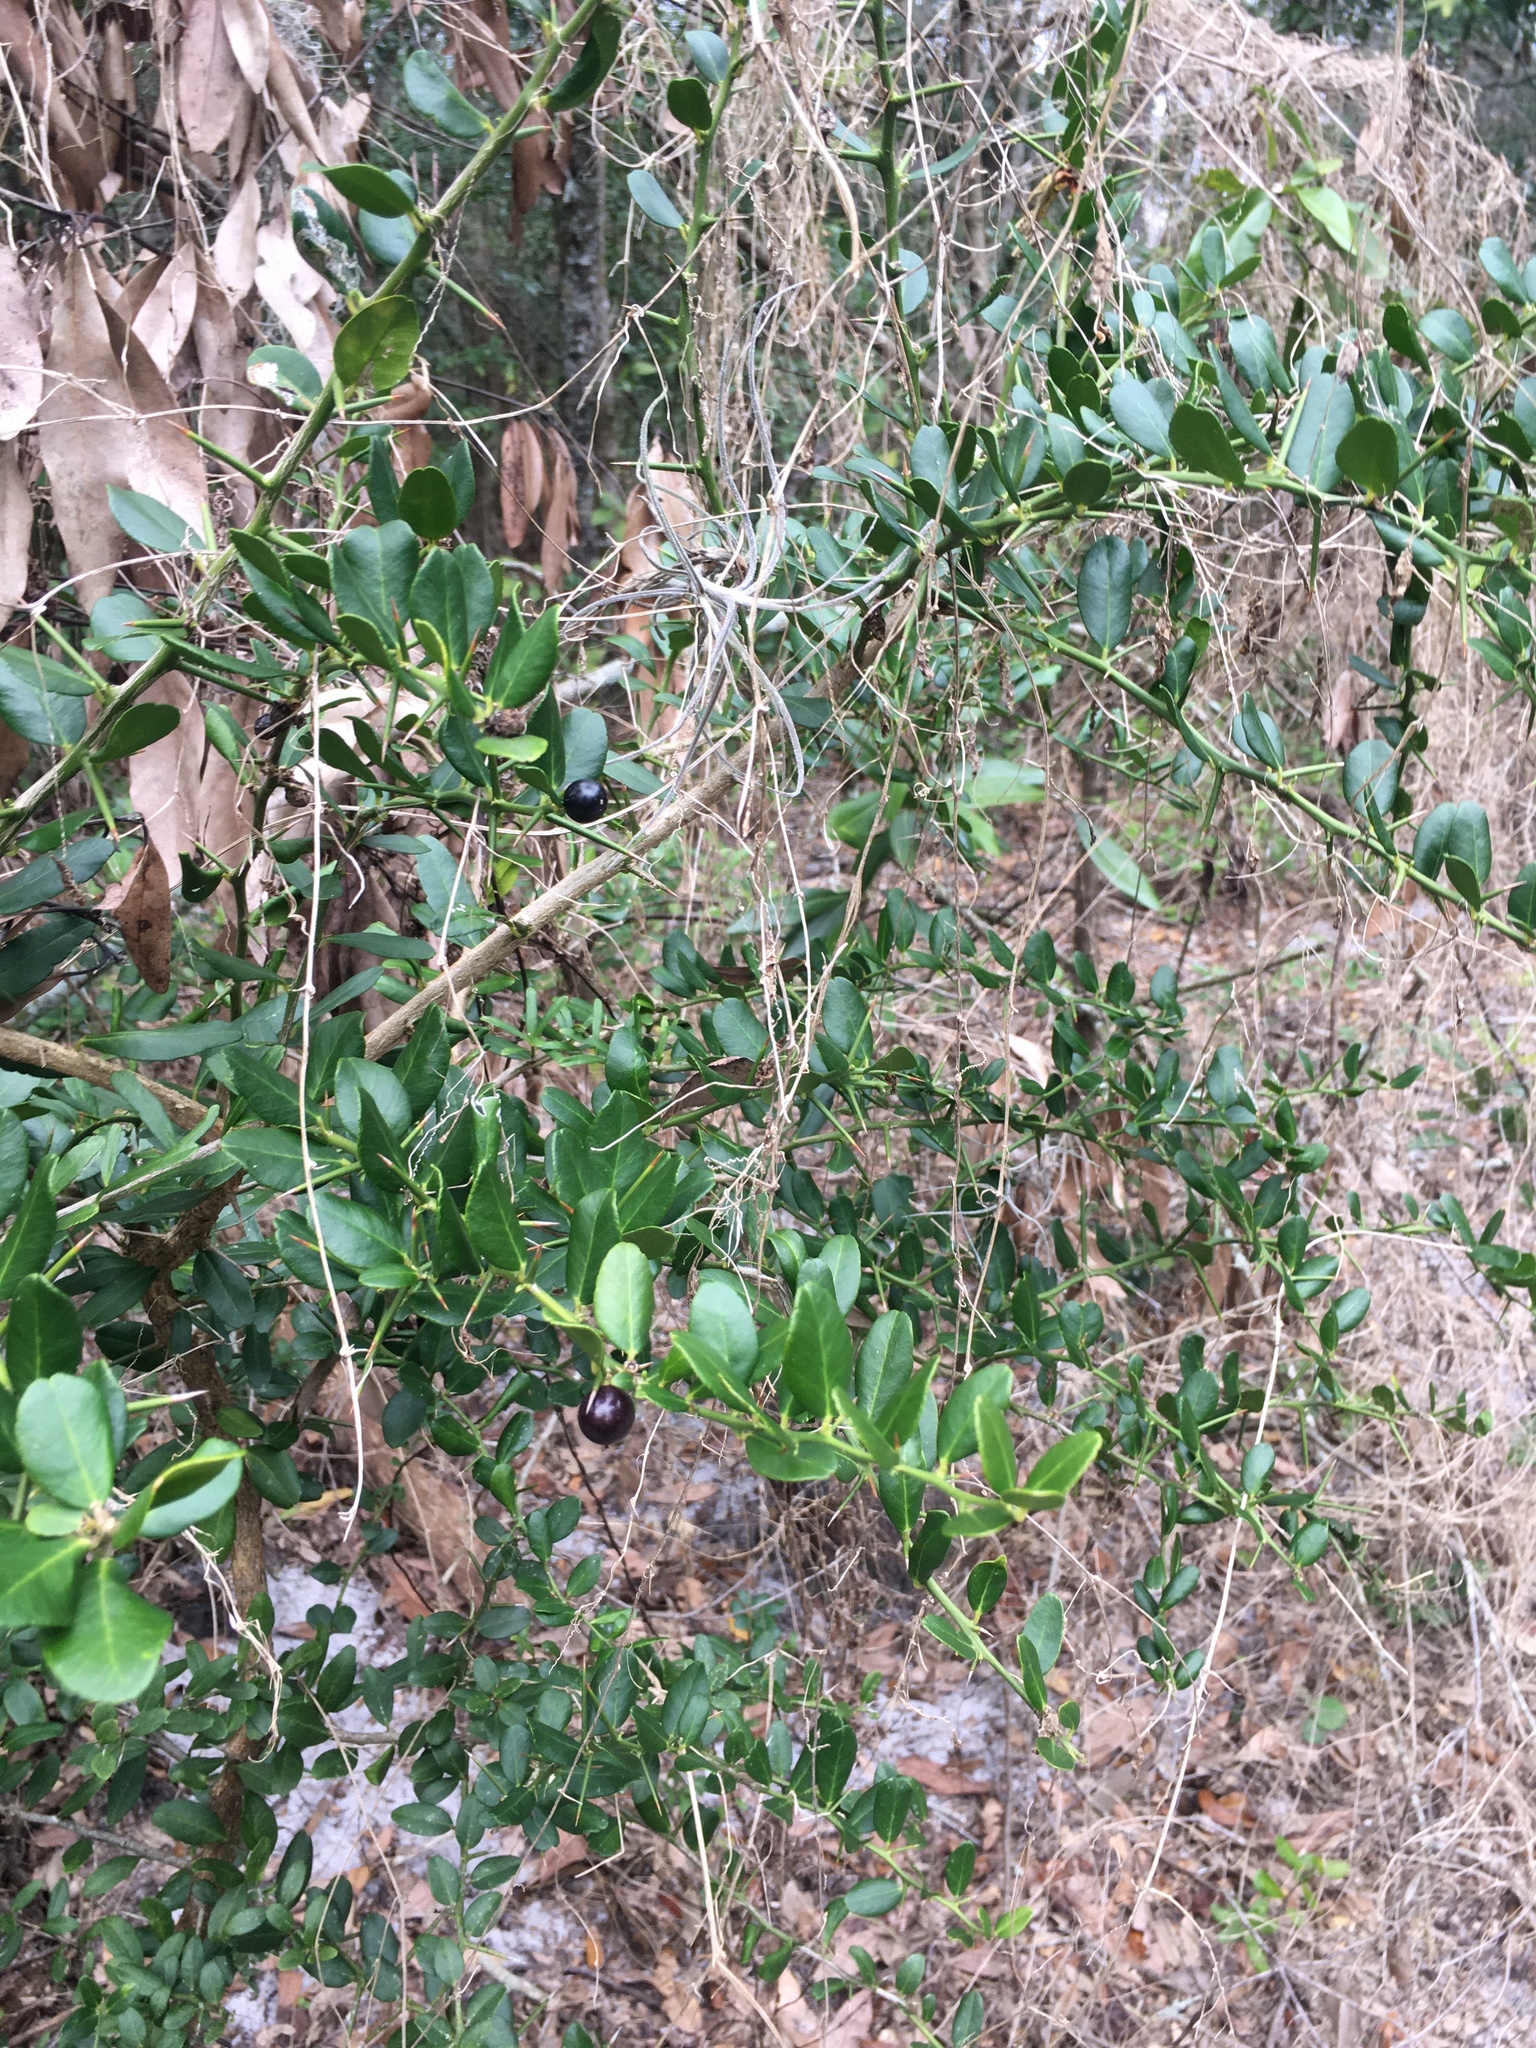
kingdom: Plantae
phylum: Tracheophyta
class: Magnoliopsida
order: Sapindales
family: Rutaceae
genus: Atalantia
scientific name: Atalantia buxifolia
